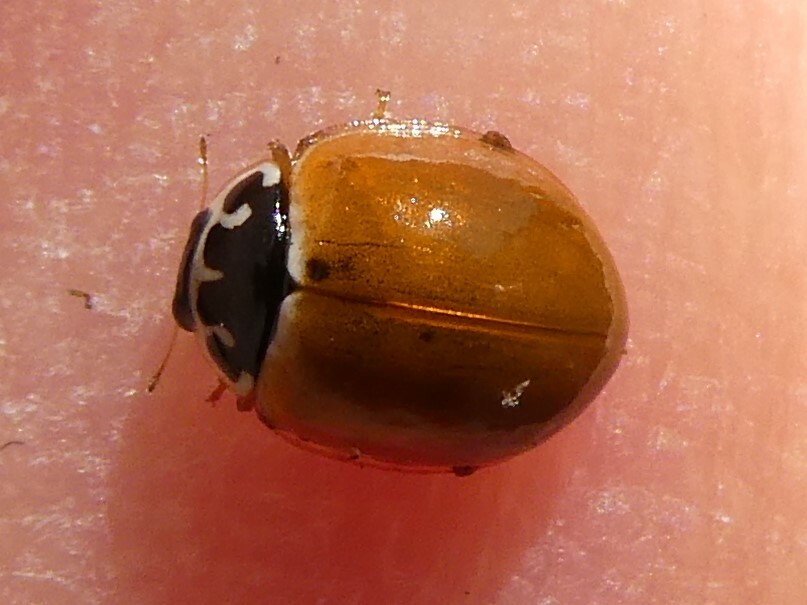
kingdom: Animalia
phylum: Arthropoda
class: Insecta
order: Coleoptera
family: Coccinellidae
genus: Cycloneda
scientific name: Cycloneda munda
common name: Polished lady beetle
